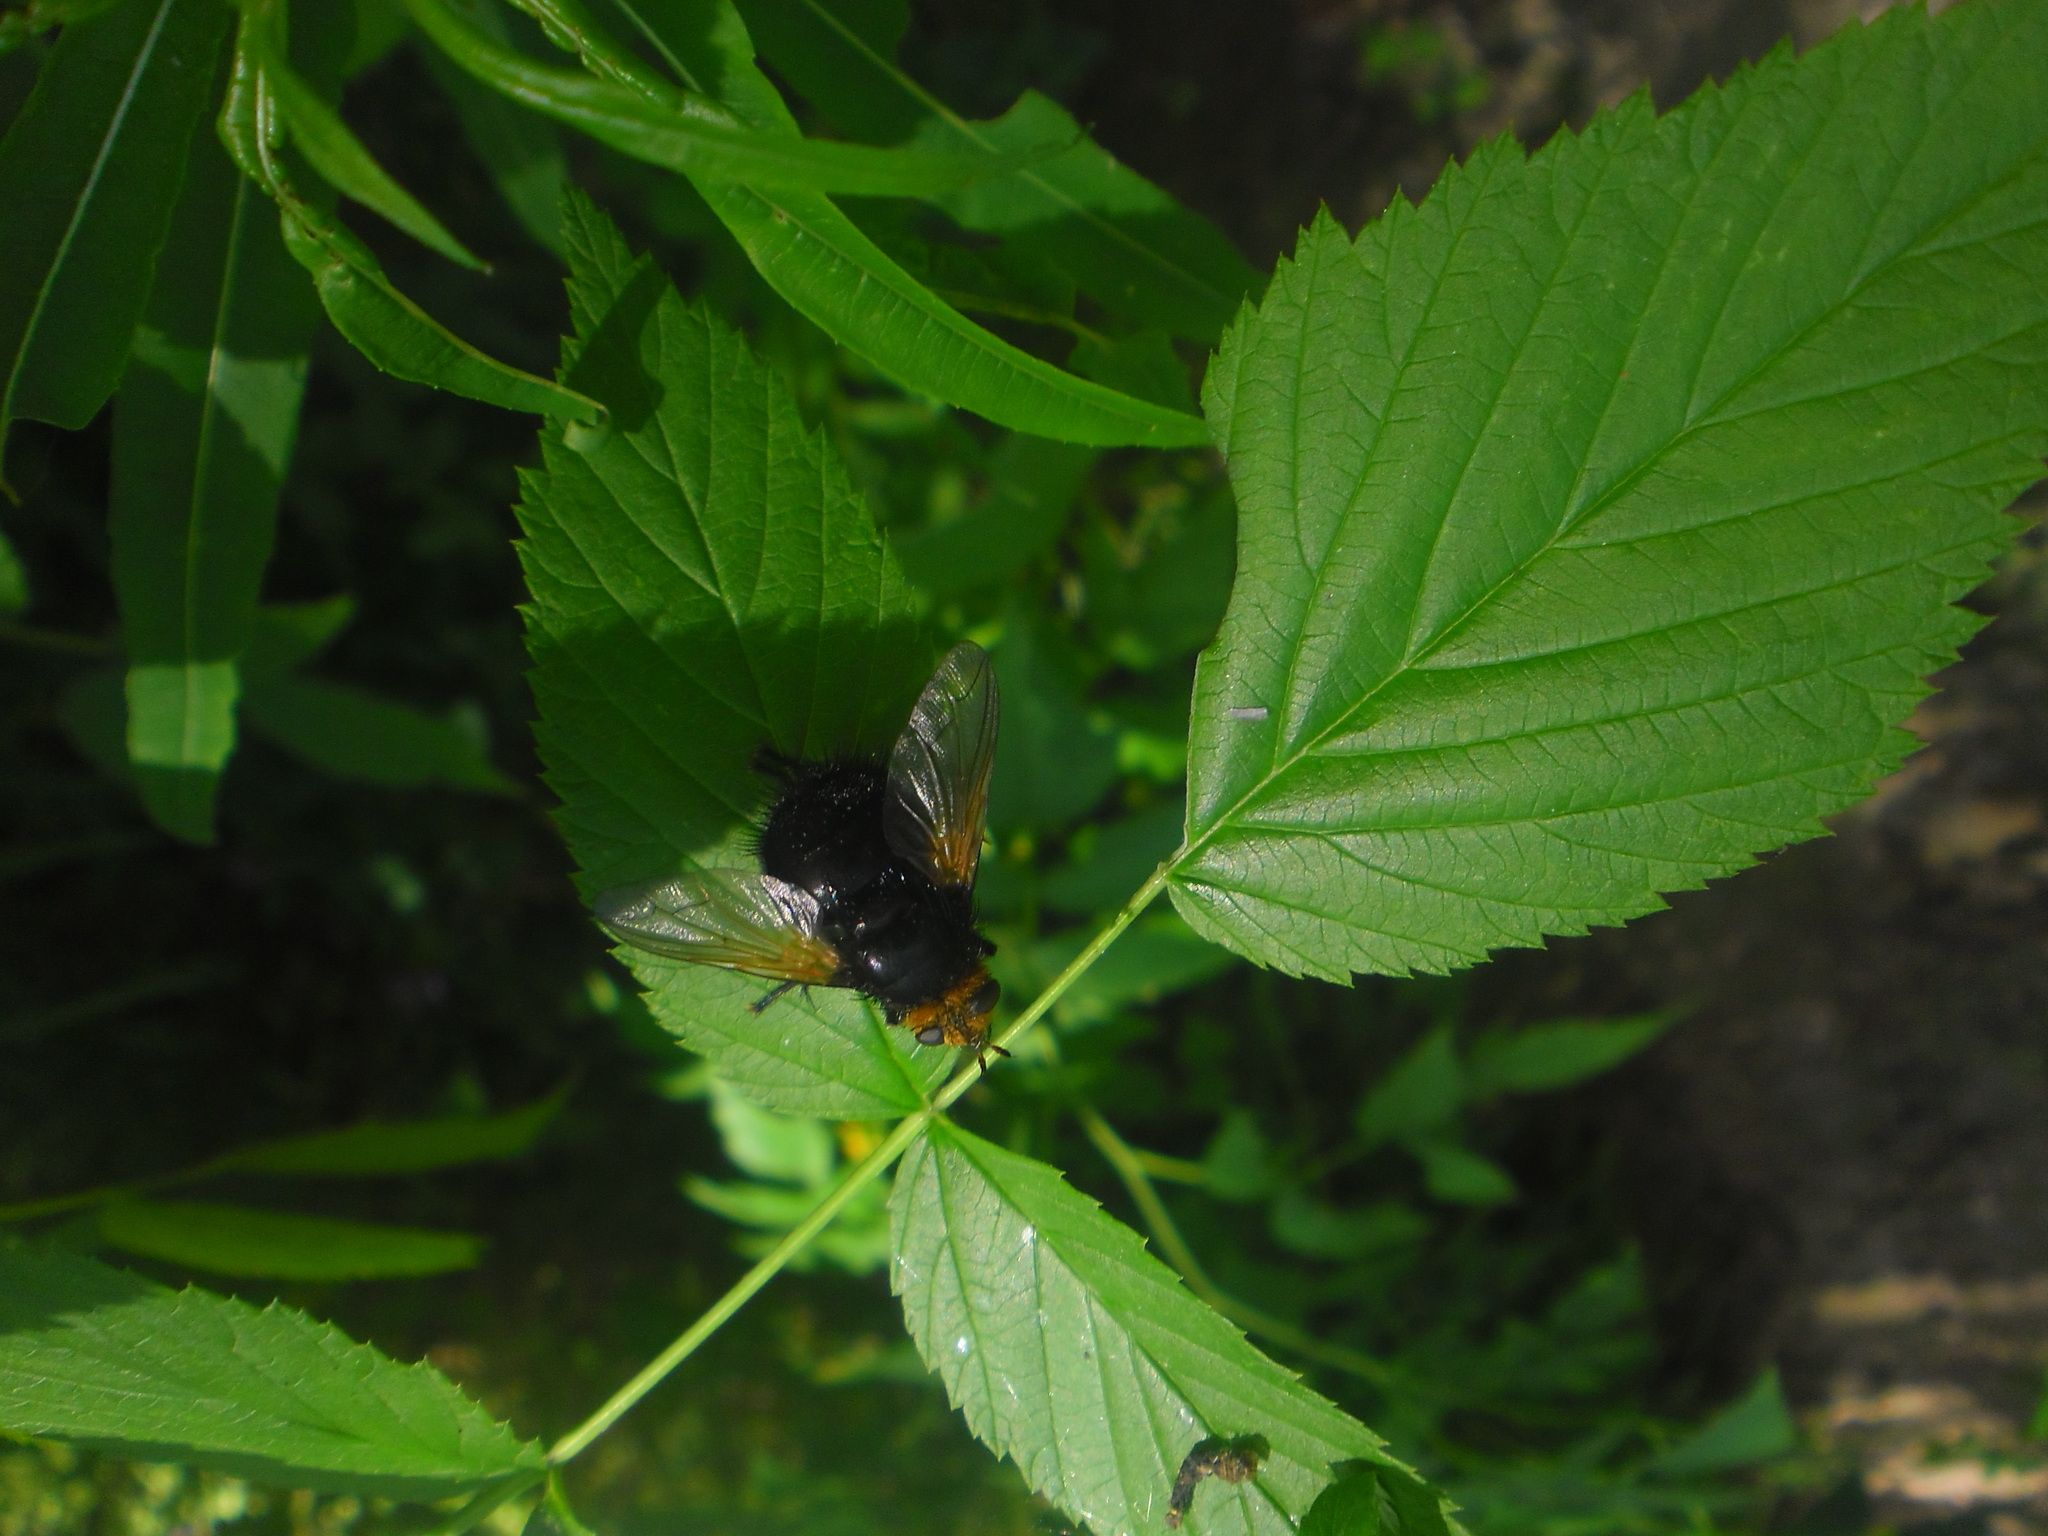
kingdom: Animalia
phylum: Arthropoda
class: Insecta
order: Diptera
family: Tachinidae
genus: Tachina
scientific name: Tachina grossa
